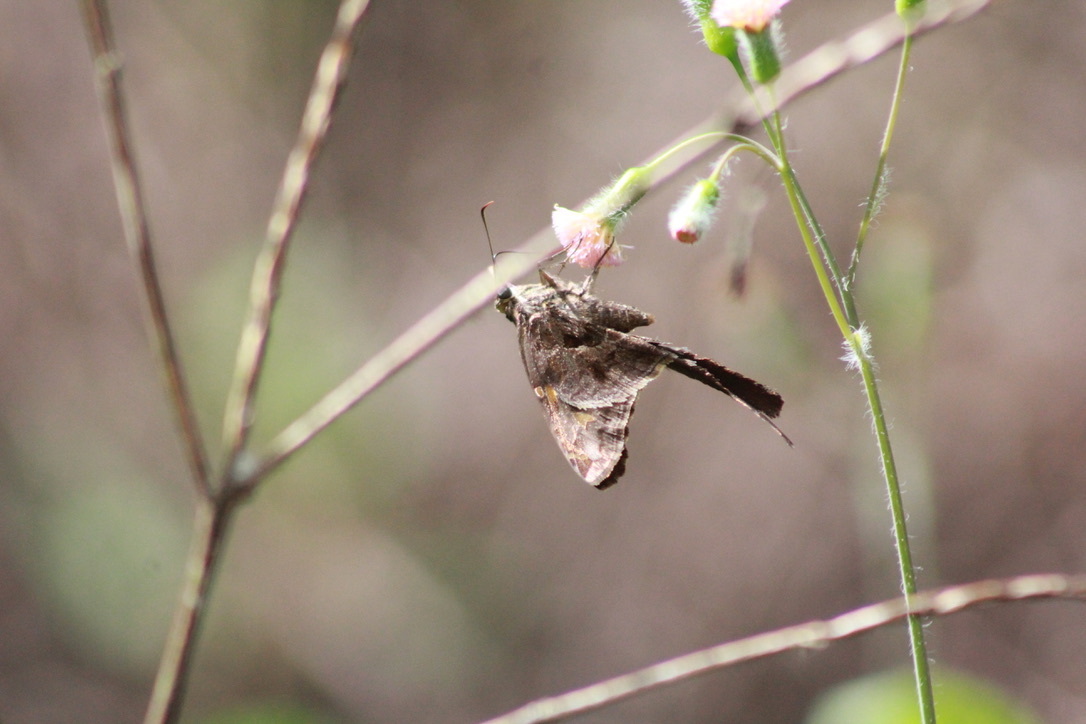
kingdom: Animalia
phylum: Arthropoda
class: Insecta
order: Lepidoptera
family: Hesperiidae
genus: Chioides
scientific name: Chioides catillus
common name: Silverbanded skipper
